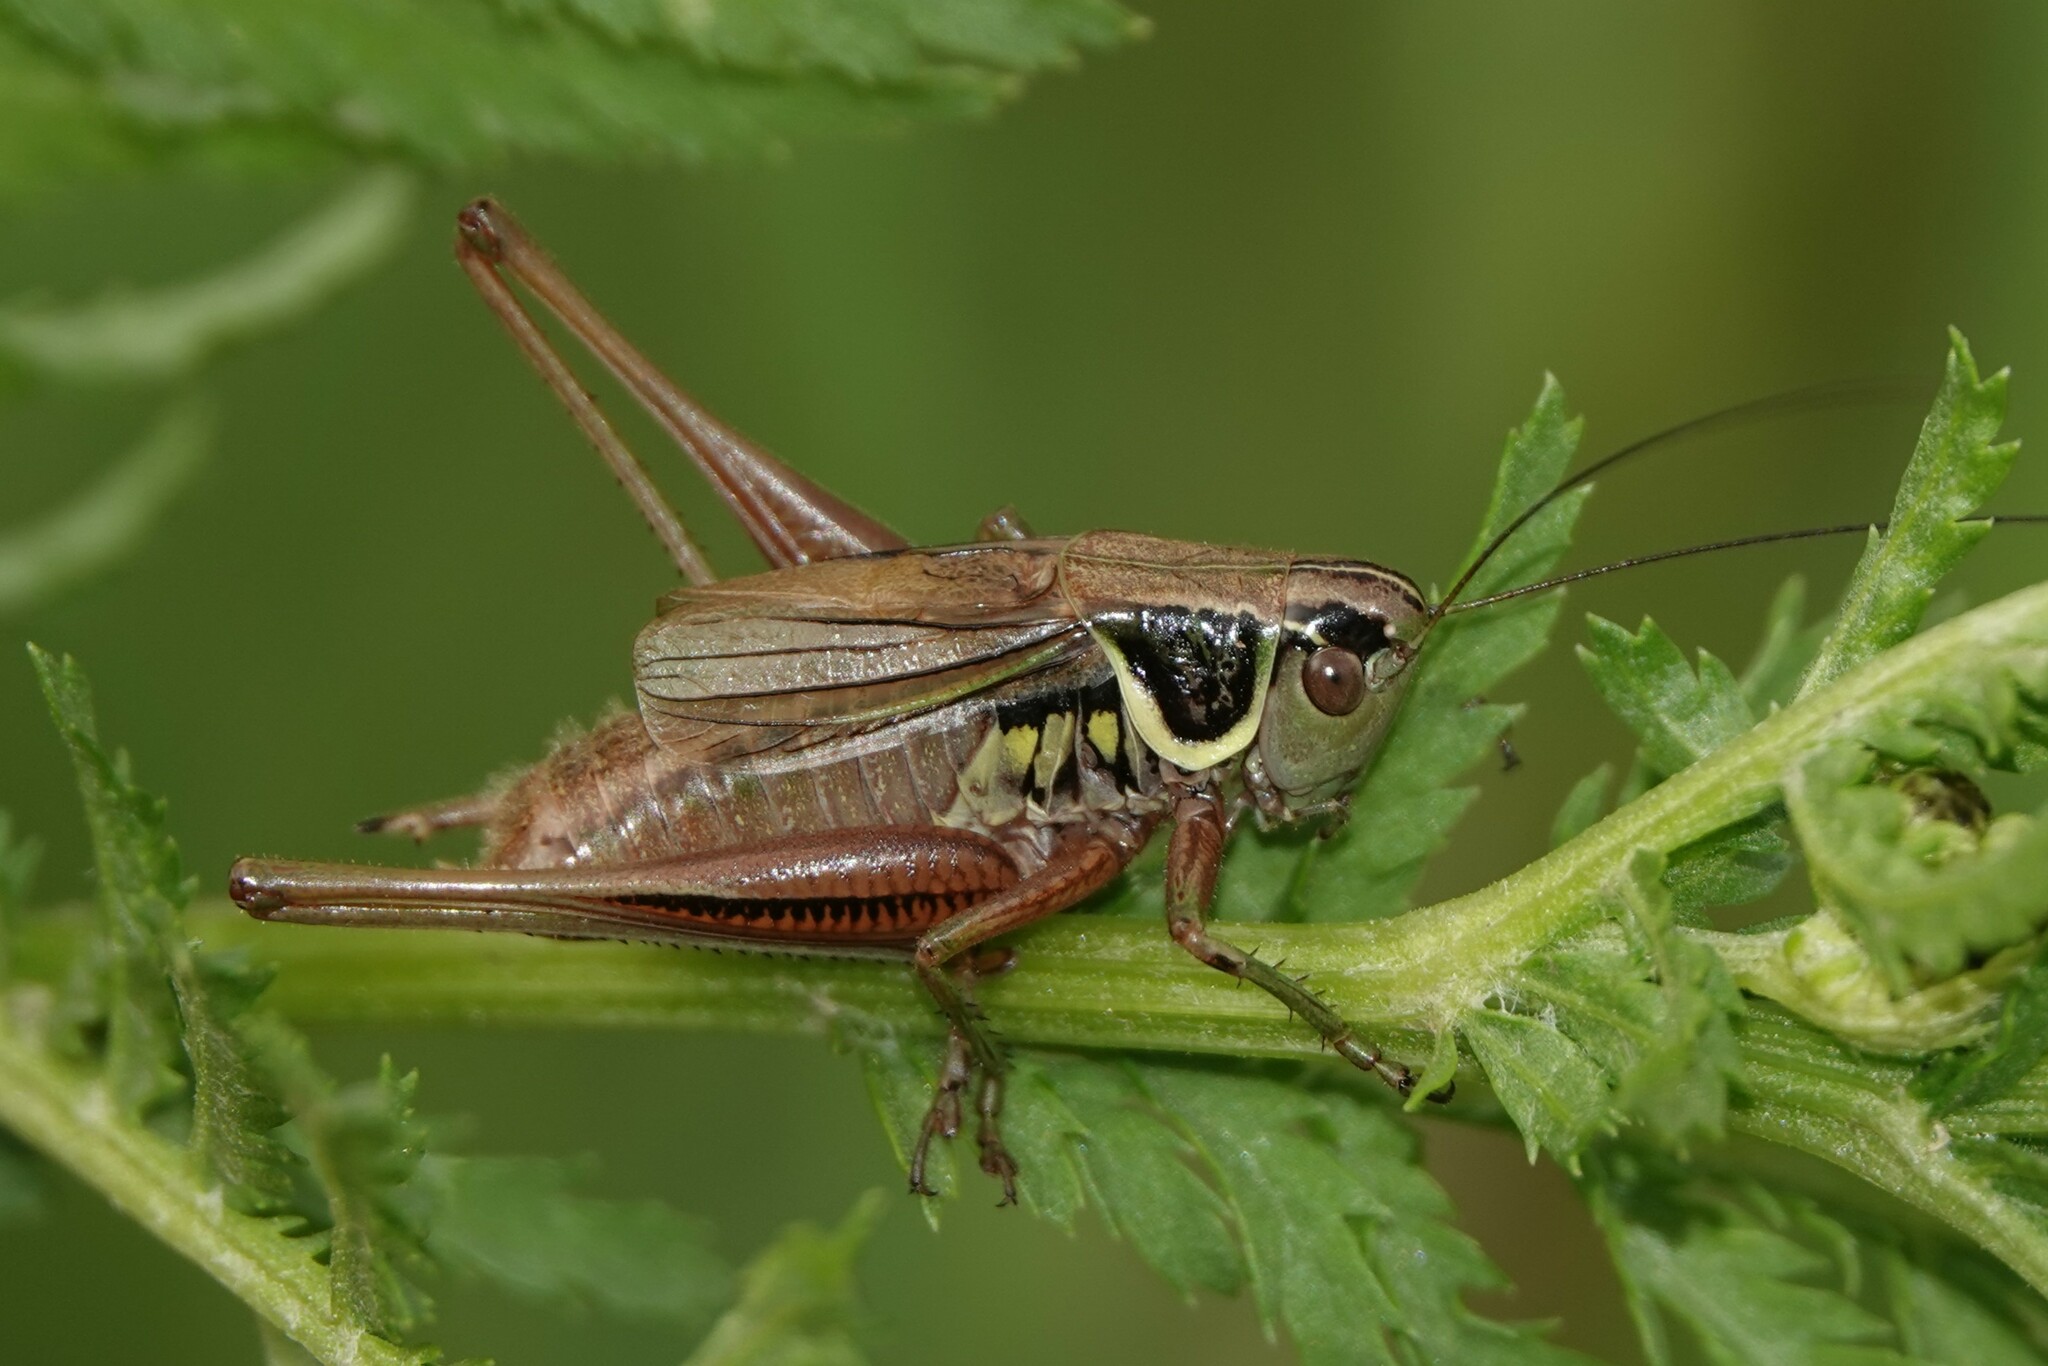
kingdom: Animalia
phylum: Arthropoda
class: Insecta
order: Orthoptera
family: Tettigoniidae
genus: Roeseliana
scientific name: Roeseliana roeselii
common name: Roesel's bush cricket
